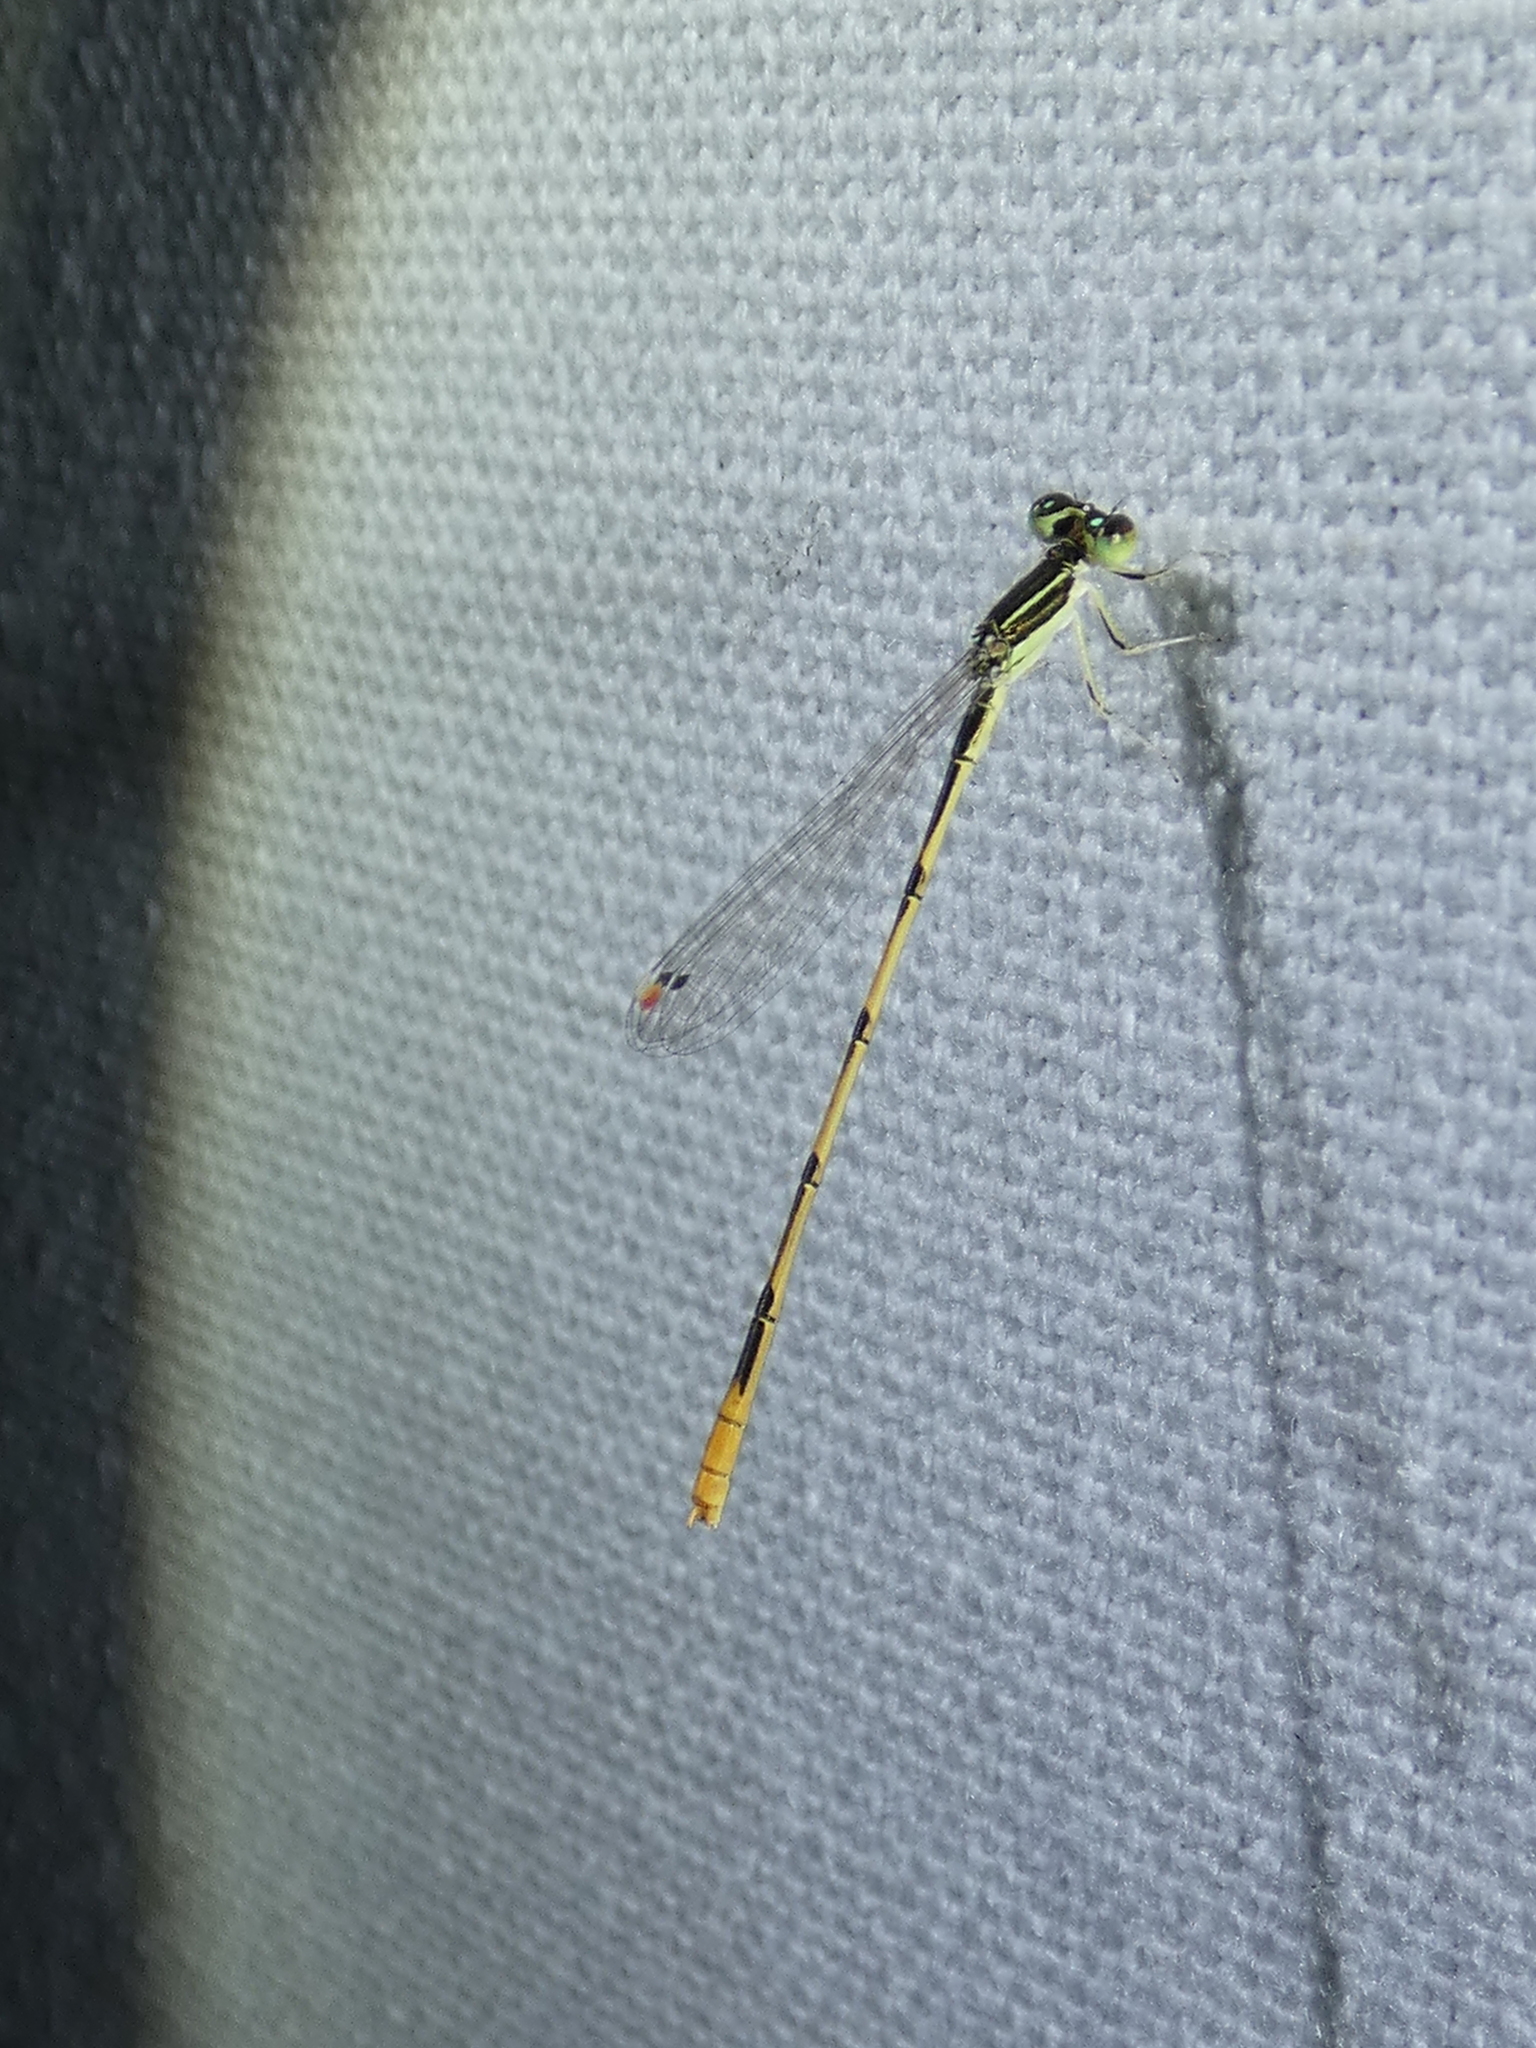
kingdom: Animalia
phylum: Arthropoda
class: Insecta
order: Odonata
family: Coenagrionidae
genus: Ischnura
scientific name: Ischnura hastata
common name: Citrine forktail
